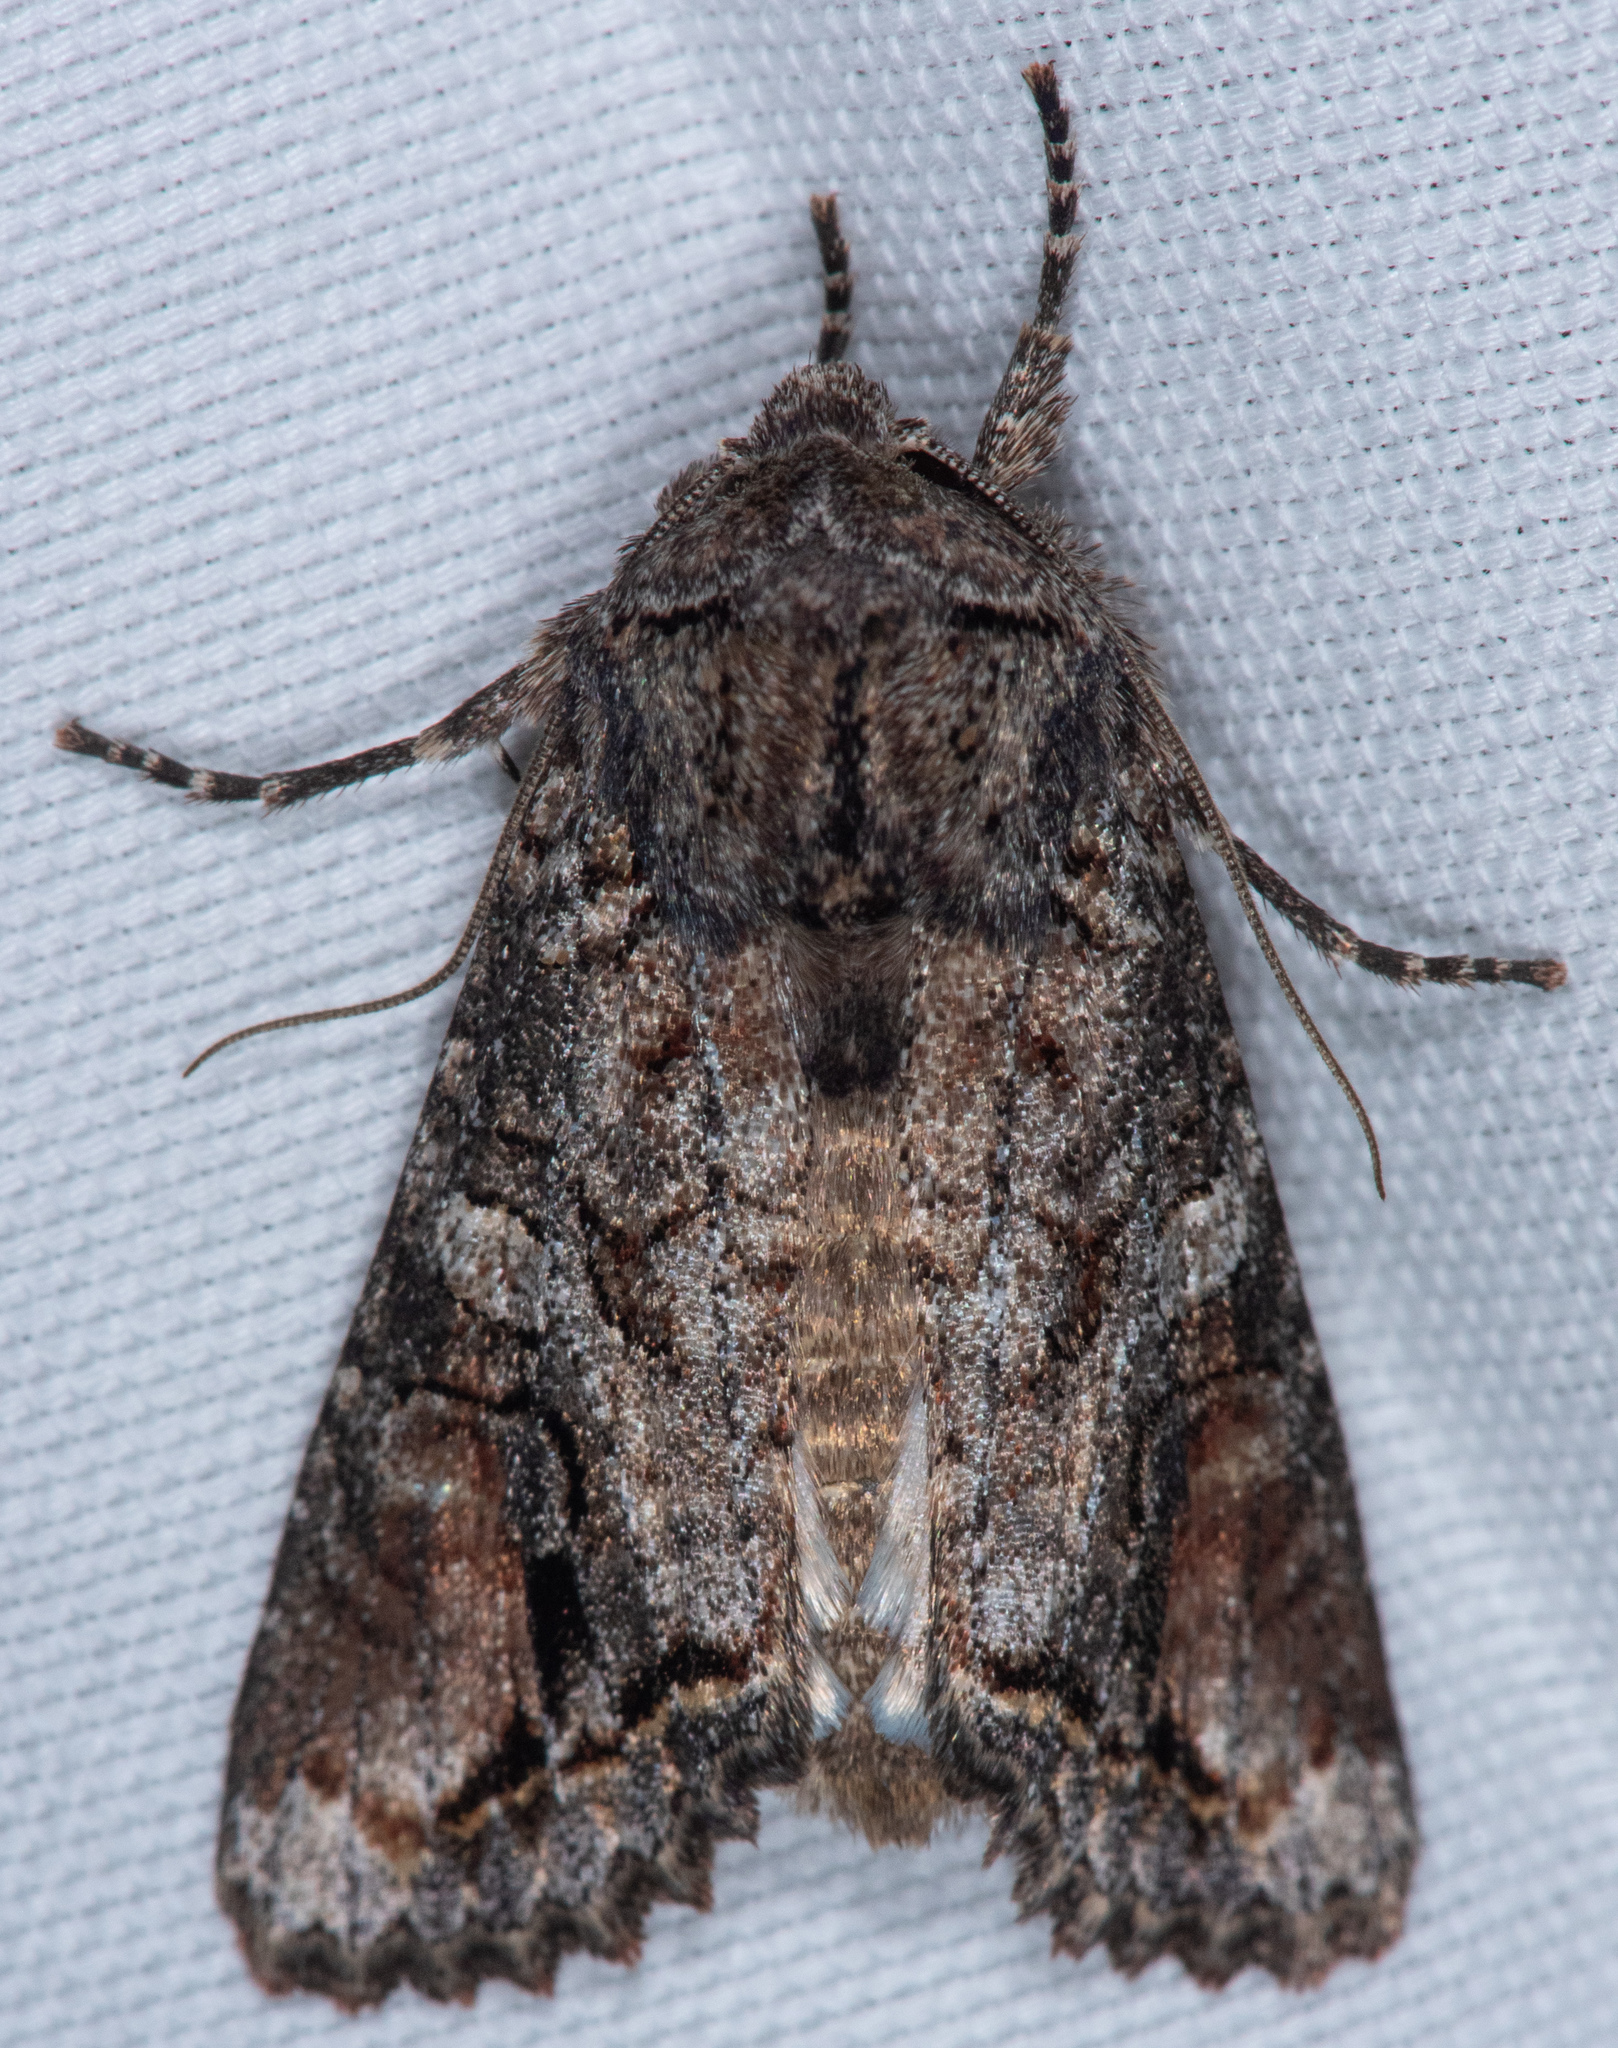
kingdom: Animalia
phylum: Arthropoda
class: Insecta
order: Lepidoptera
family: Noctuidae
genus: Egira
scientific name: Egira perlubens
